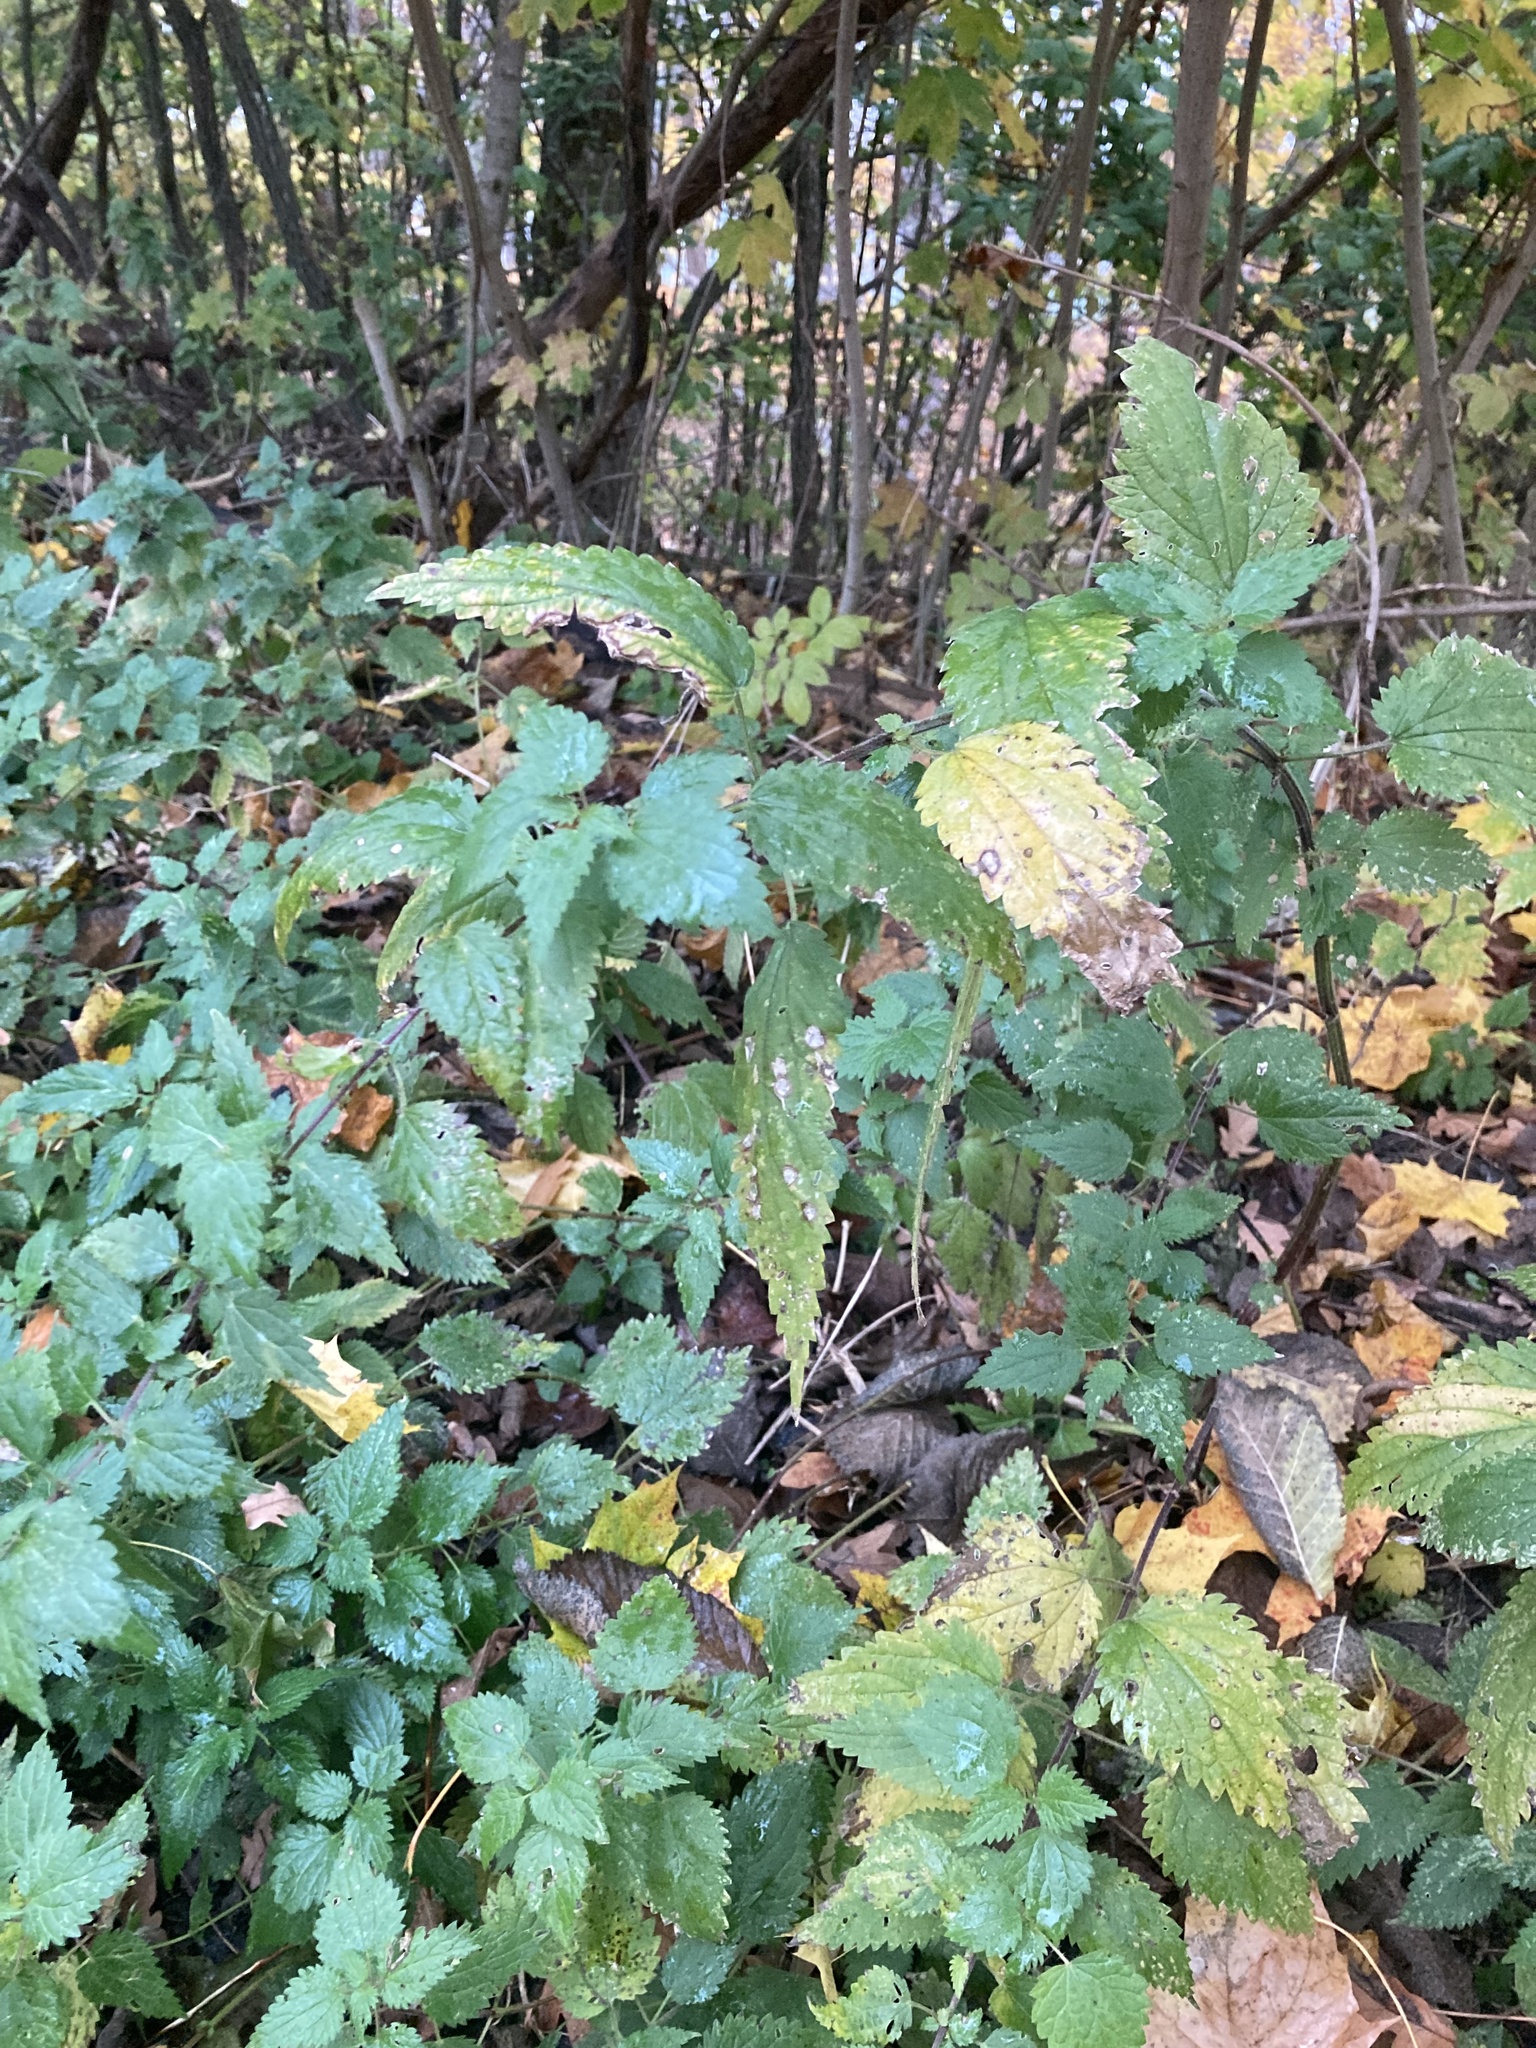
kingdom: Plantae
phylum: Tracheophyta
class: Magnoliopsida
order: Rosales
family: Urticaceae
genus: Urtica
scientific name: Urtica dioica
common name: Common nettle
